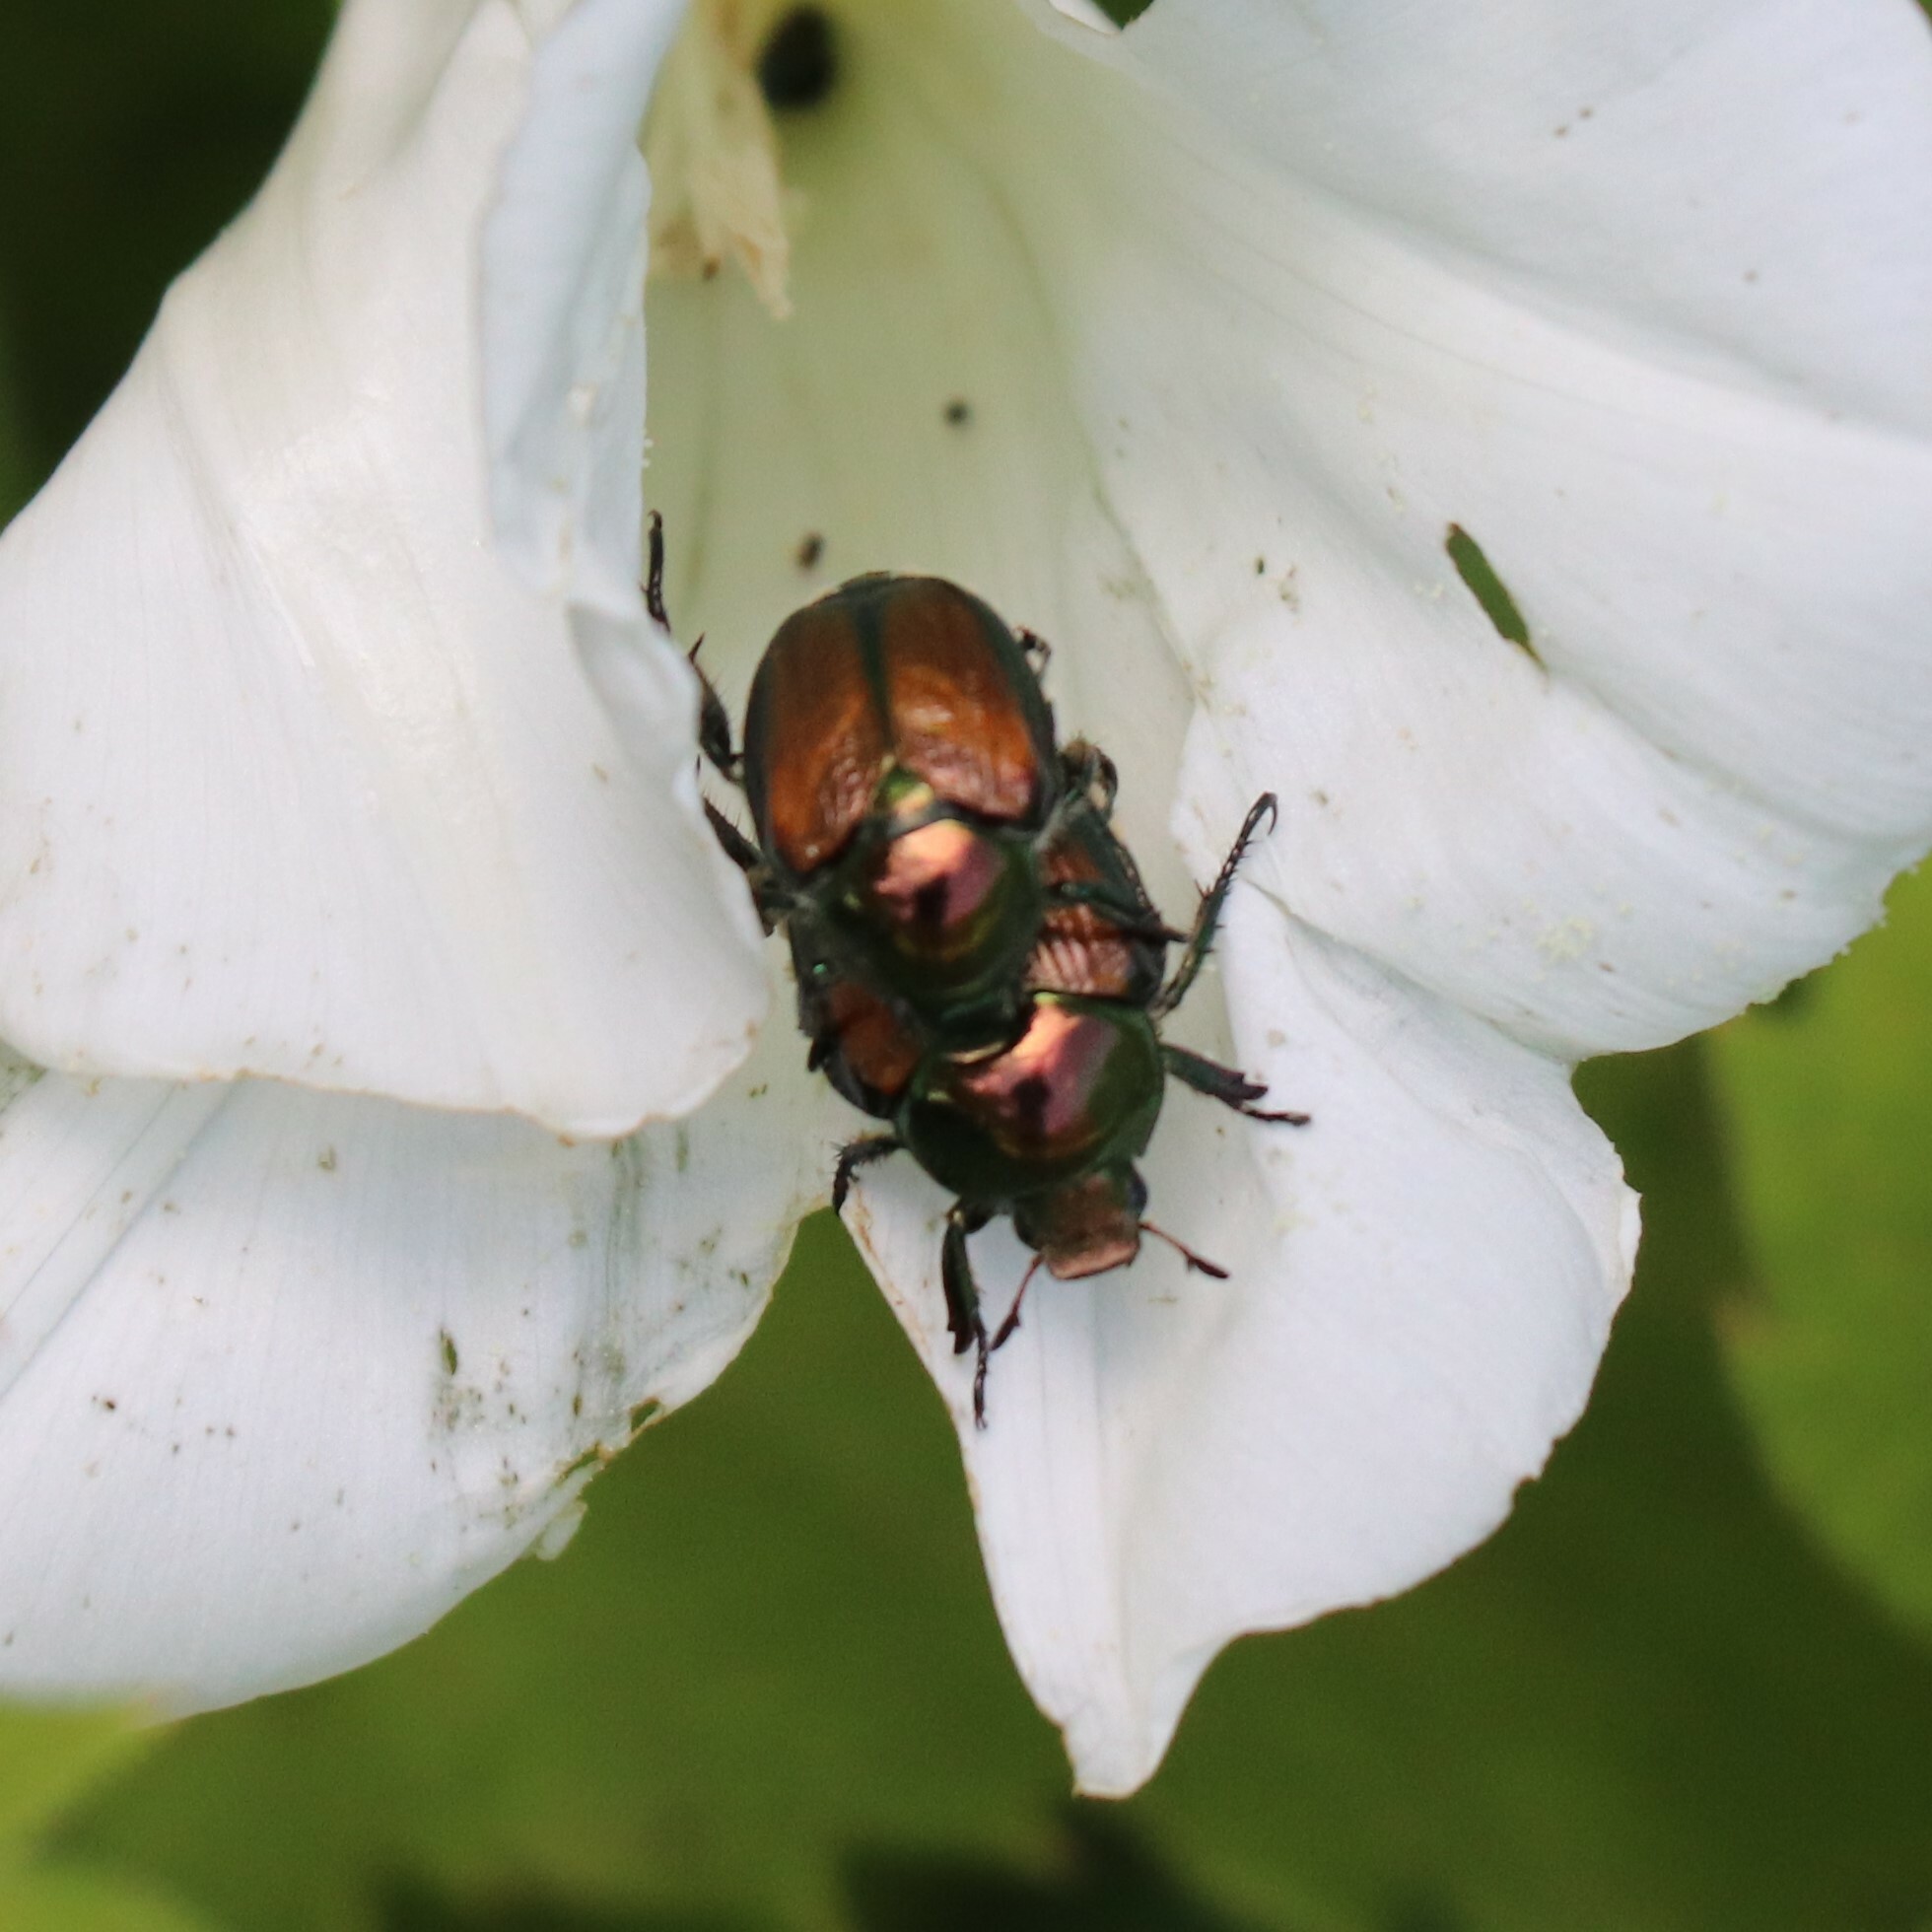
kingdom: Animalia
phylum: Arthropoda
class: Insecta
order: Coleoptera
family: Scarabaeidae
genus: Popillia
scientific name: Popillia japonica
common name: Japanese beetle
